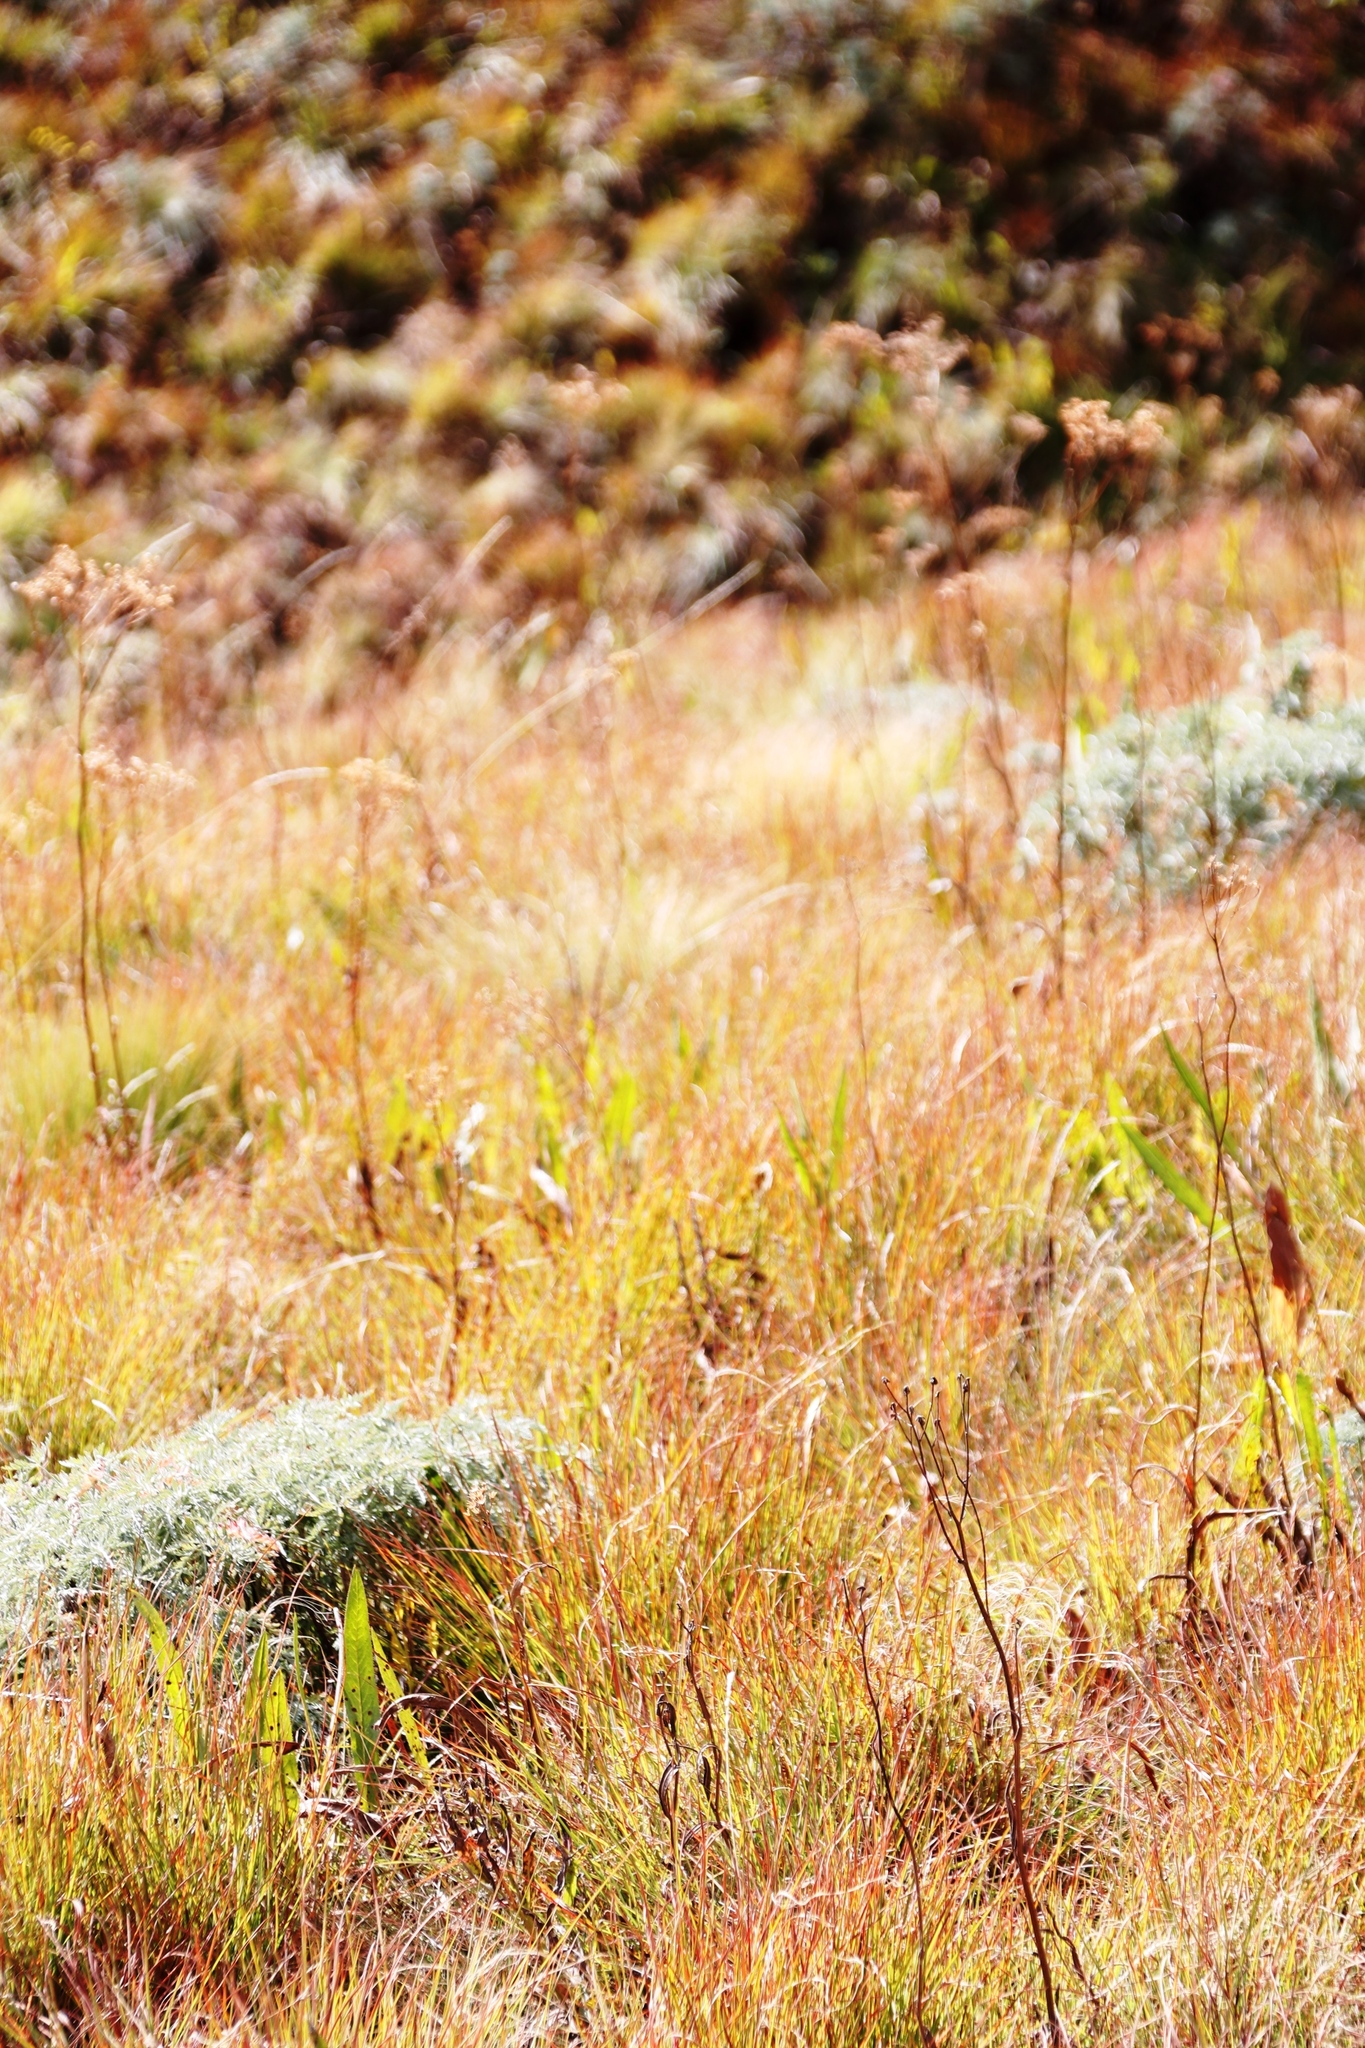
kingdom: Plantae
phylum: Tracheophyta
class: Magnoliopsida
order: Asterales
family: Asteraceae
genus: Senecio
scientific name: Senecio inornatus
